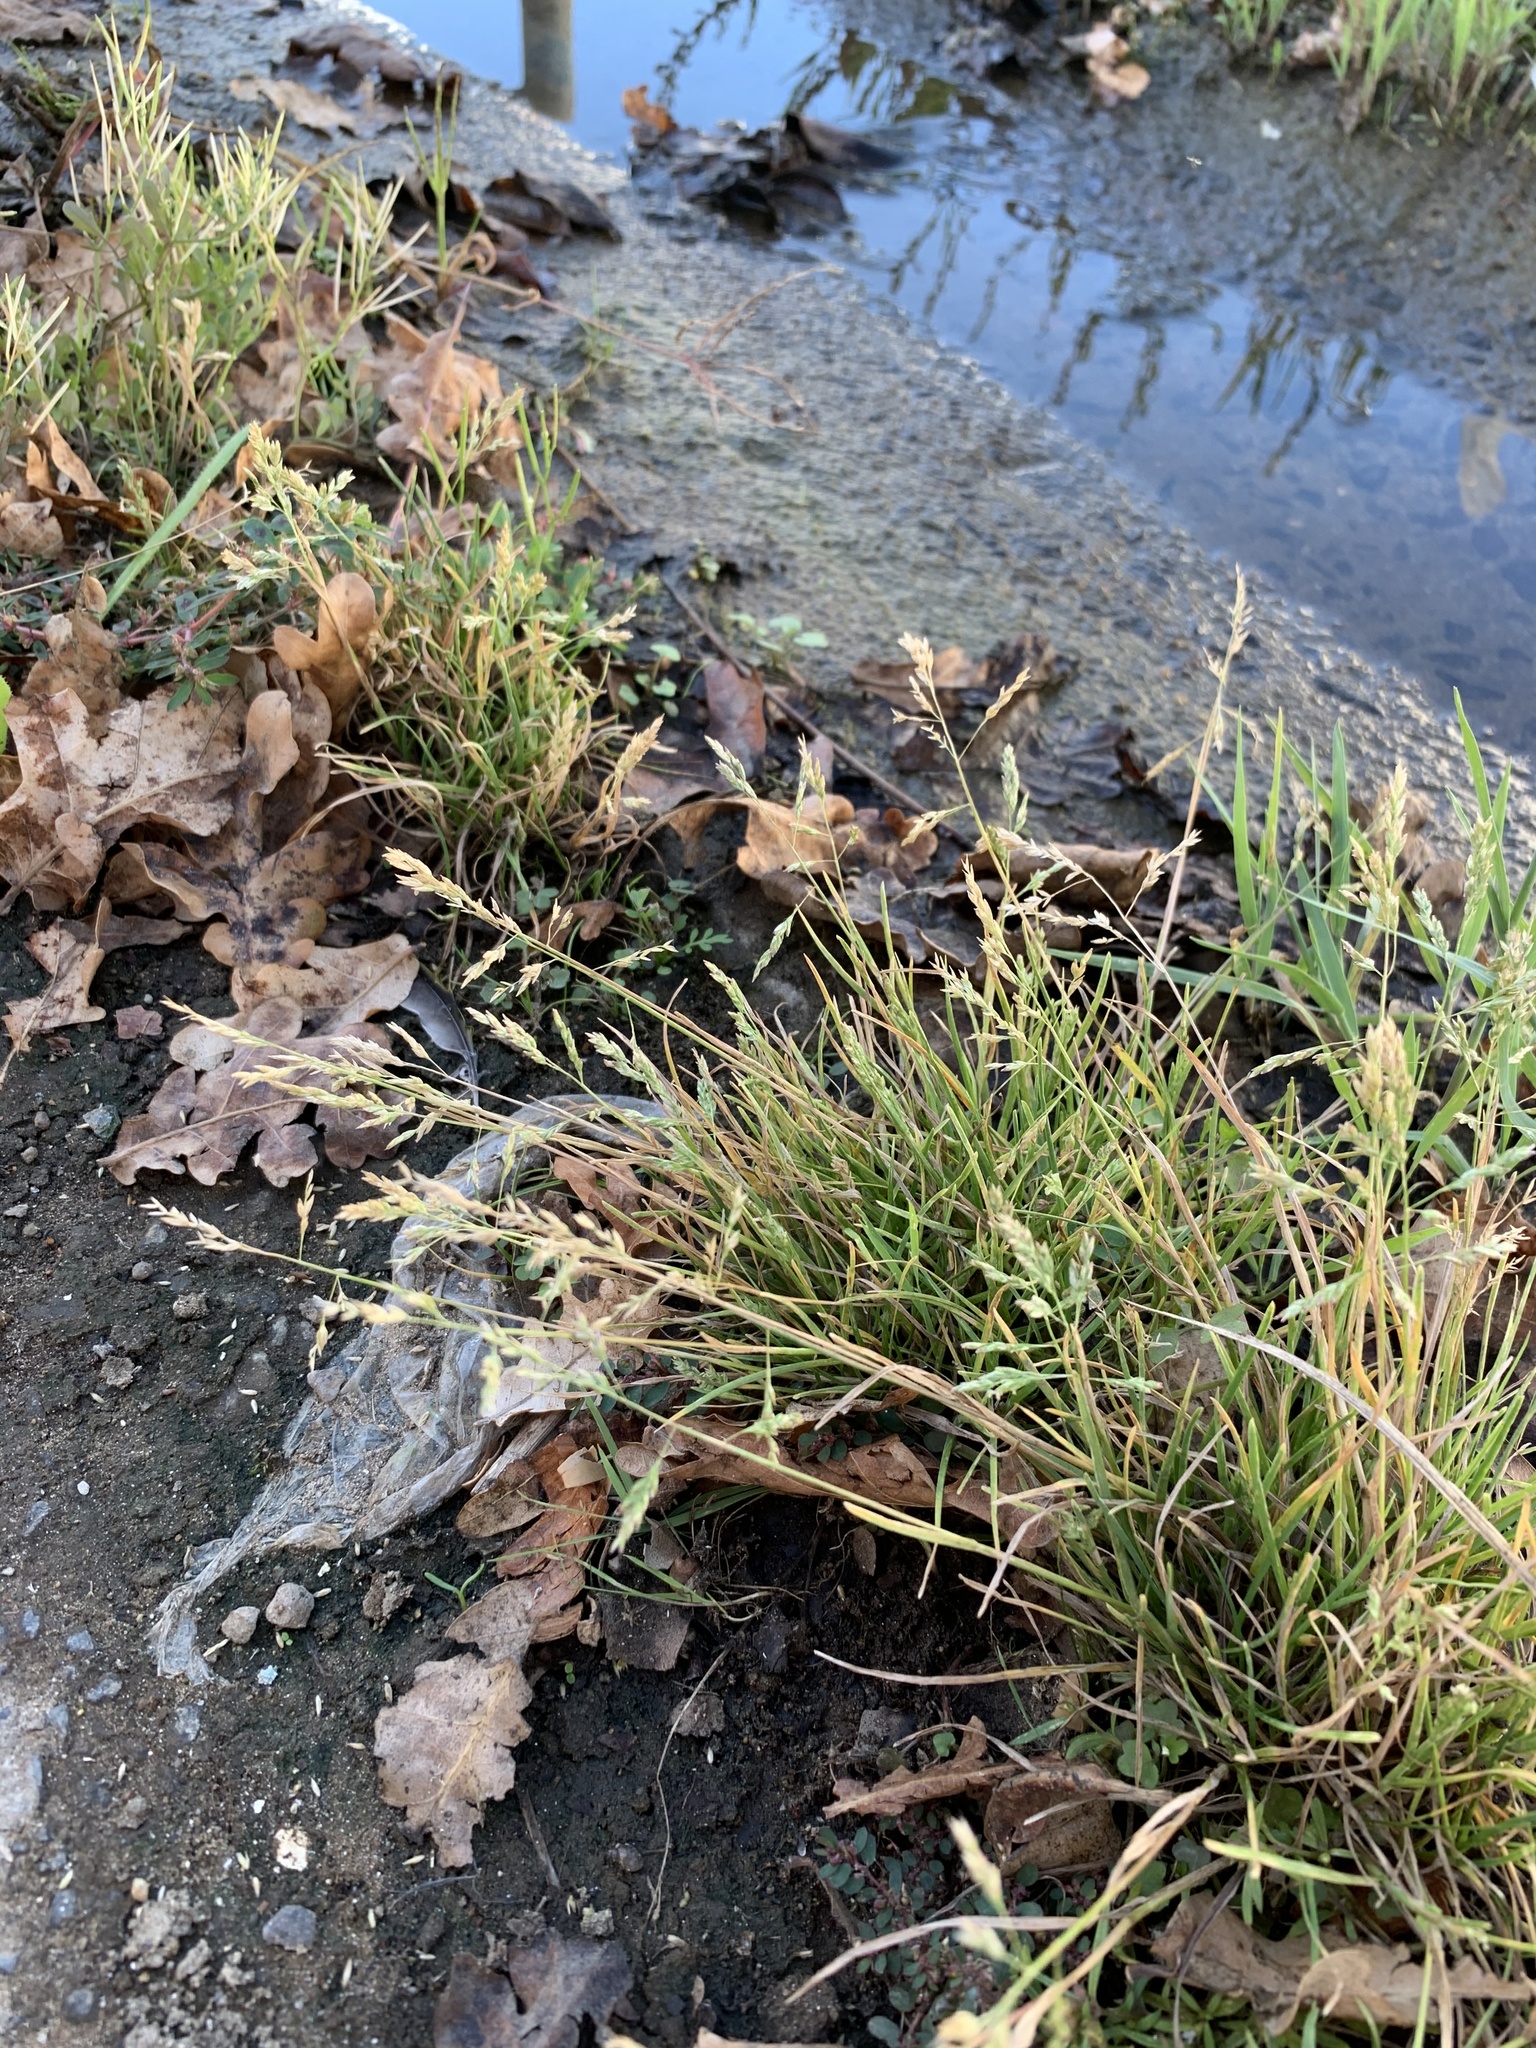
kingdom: Plantae
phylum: Tracheophyta
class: Liliopsida
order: Poales
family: Poaceae
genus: Poa
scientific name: Poa annua
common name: Annual bluegrass
